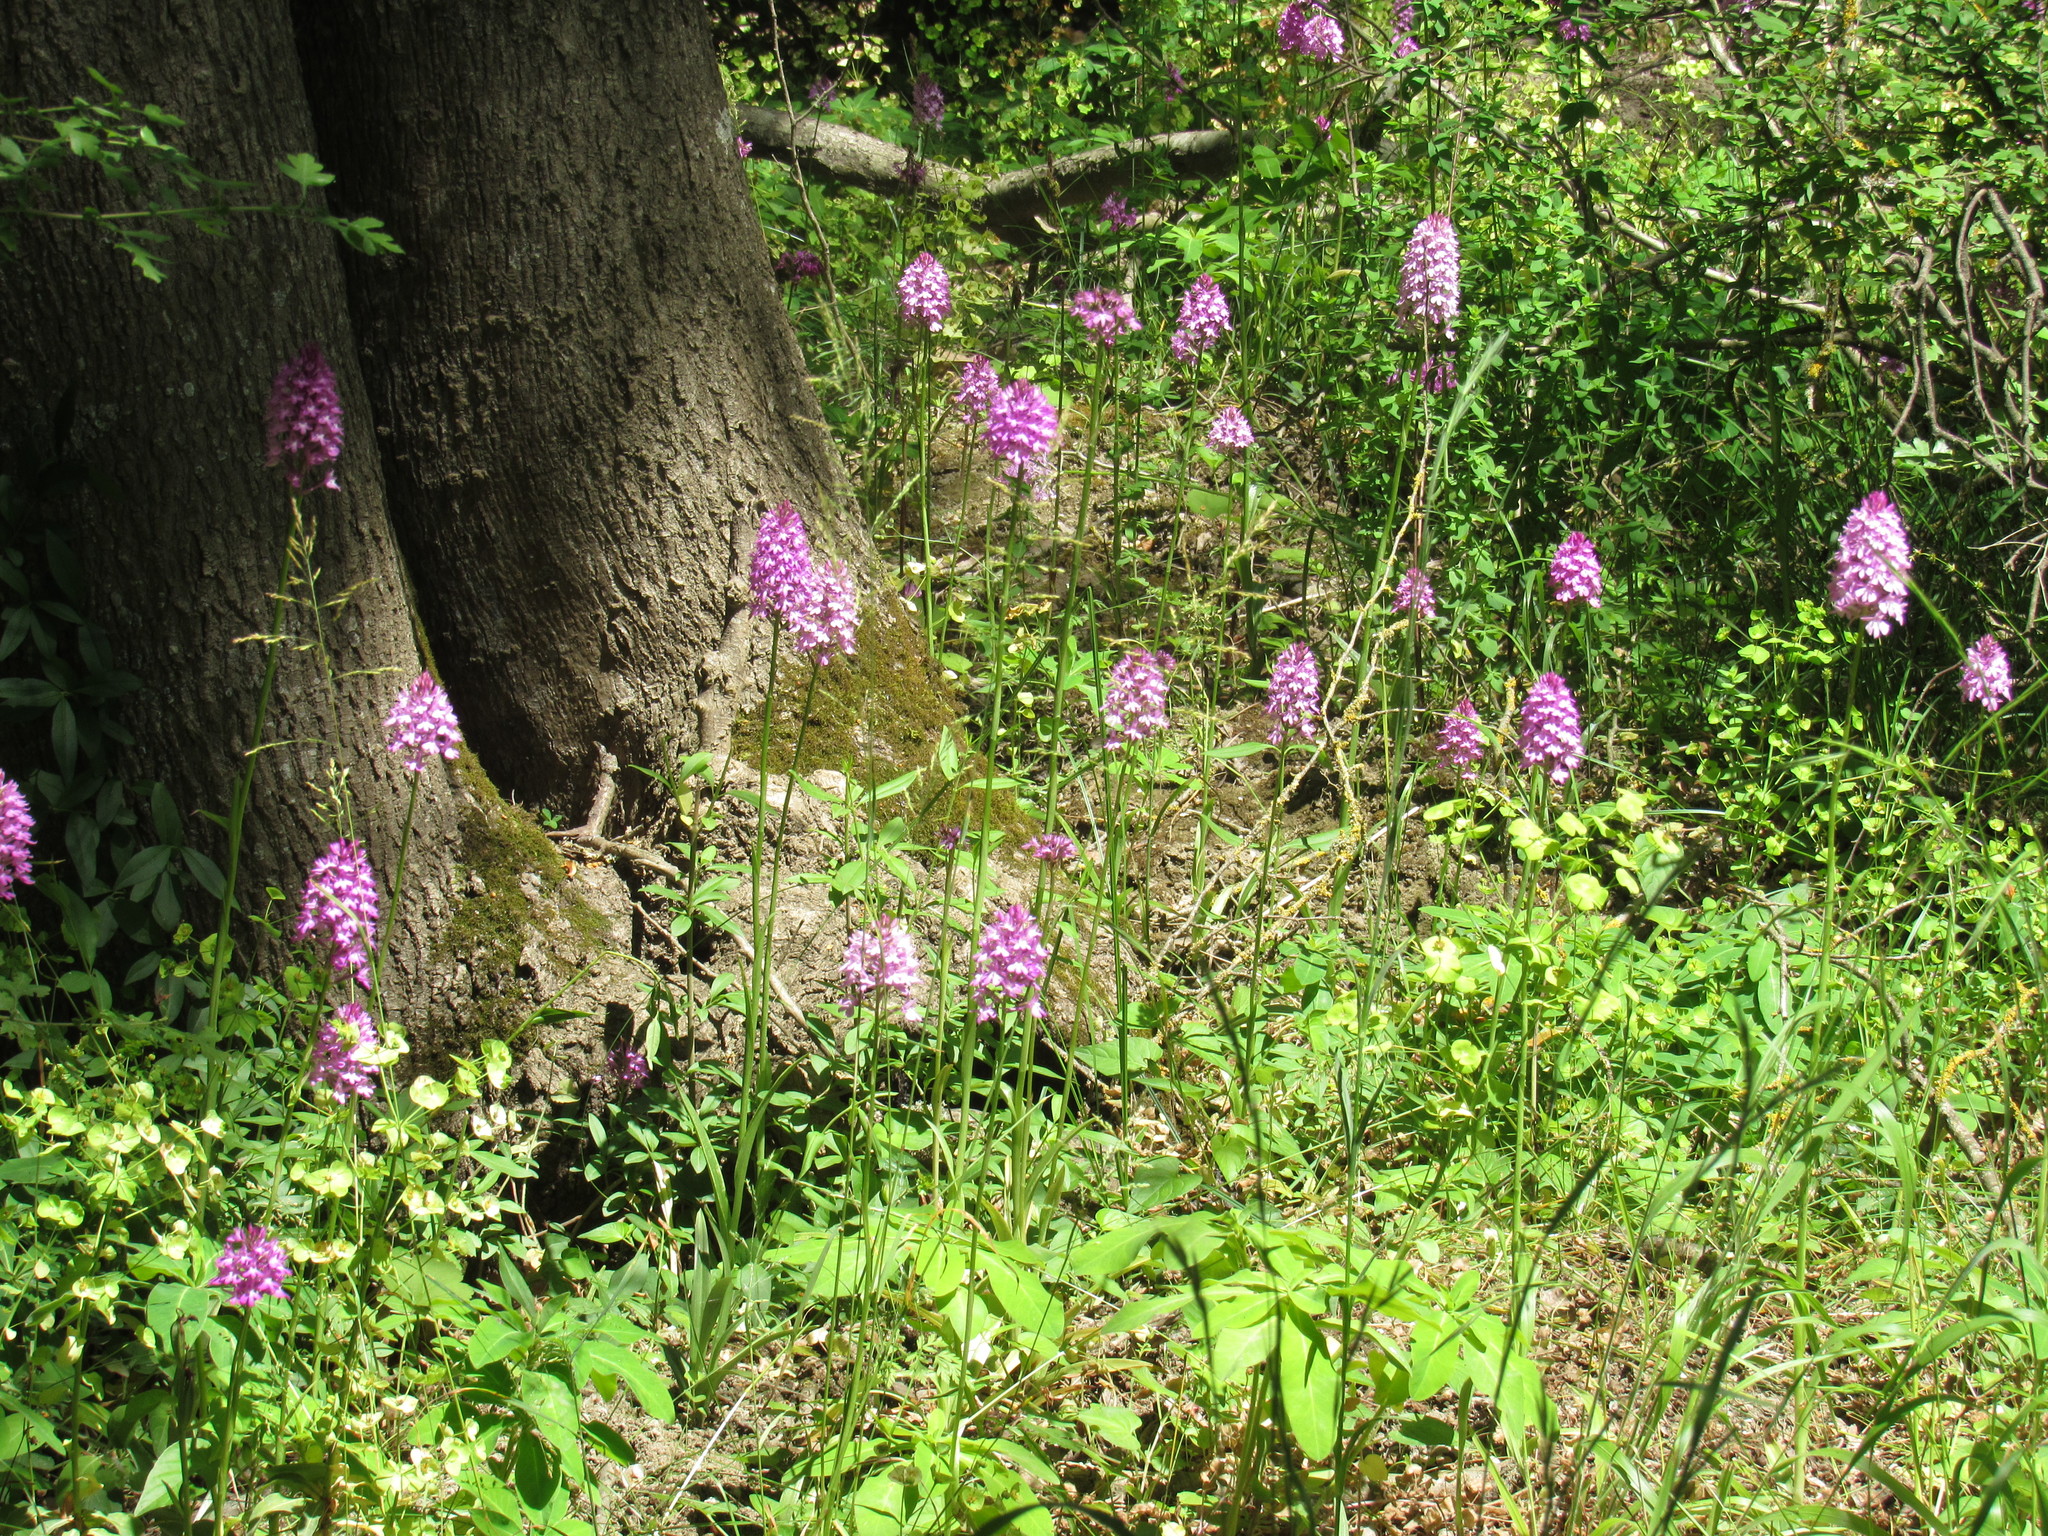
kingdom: Plantae
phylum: Tracheophyta
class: Liliopsida
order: Asparagales
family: Orchidaceae
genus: Anacamptis
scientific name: Anacamptis pyramidalis
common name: Pyramidal orchid
